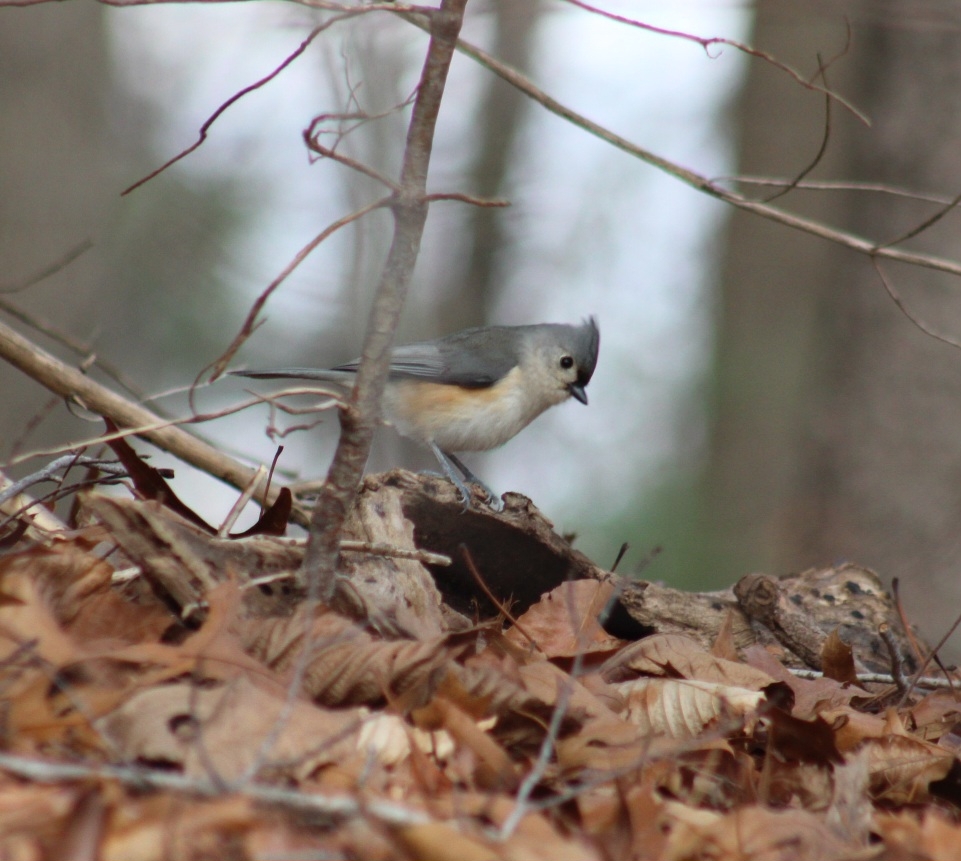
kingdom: Animalia
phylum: Chordata
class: Aves
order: Passeriformes
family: Paridae
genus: Baeolophus
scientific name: Baeolophus bicolor
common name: Tufted titmouse
